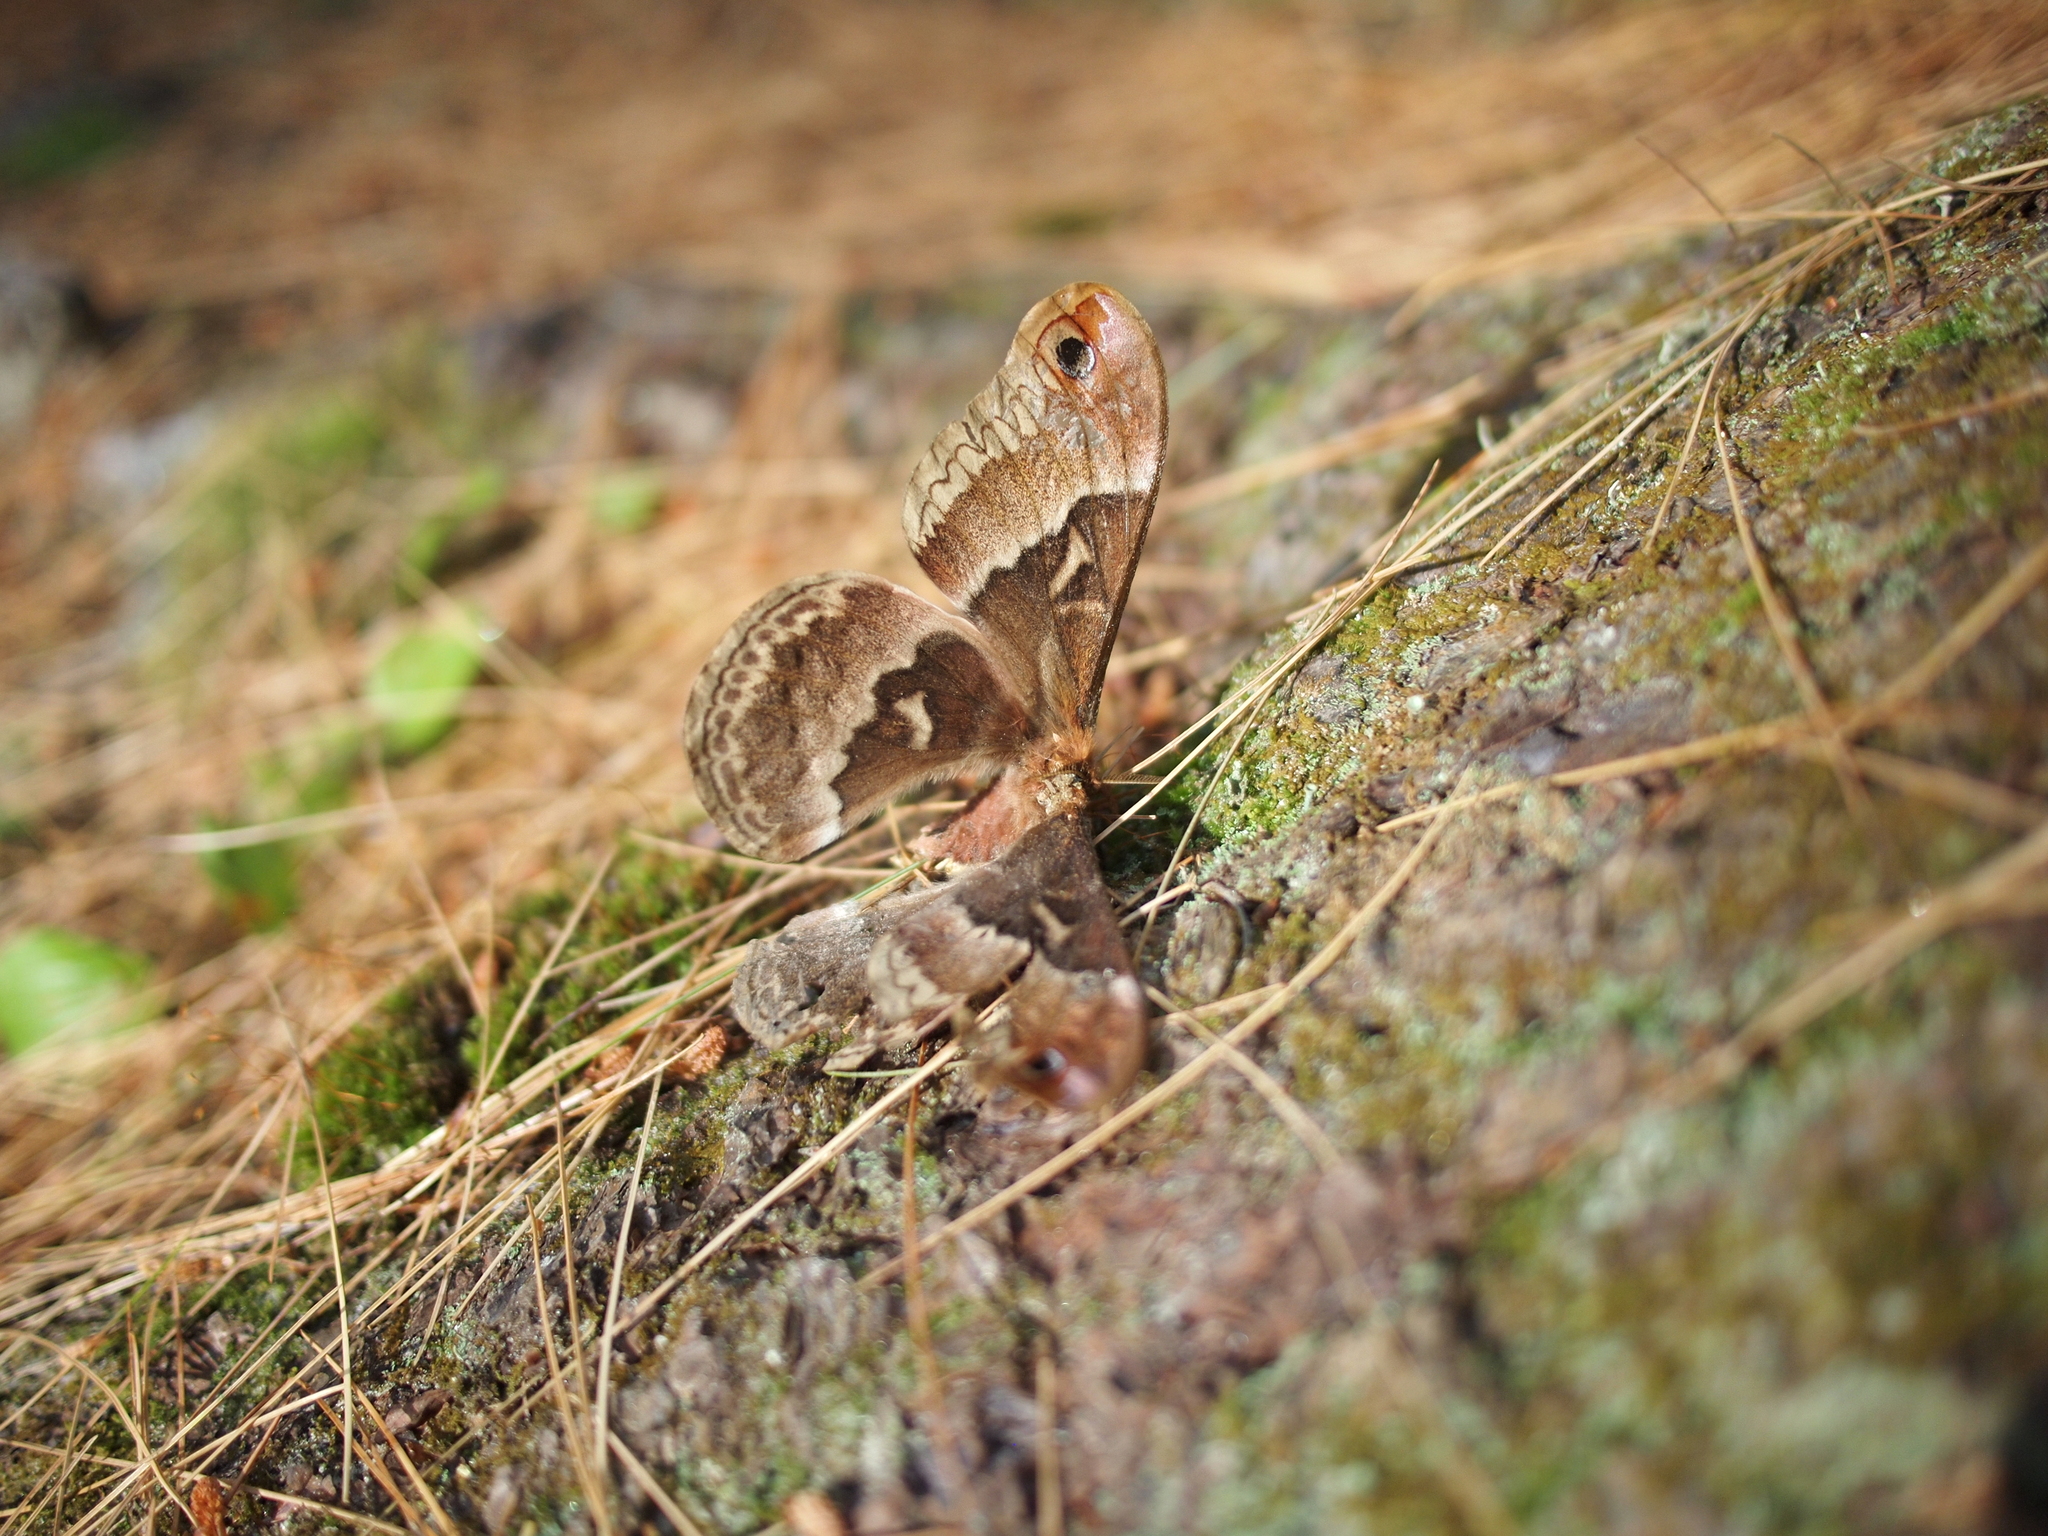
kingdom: Animalia
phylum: Arthropoda
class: Insecta
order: Lepidoptera
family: Saturniidae
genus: Callosamia
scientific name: Callosamia promethea
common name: Promethea silkmoth
